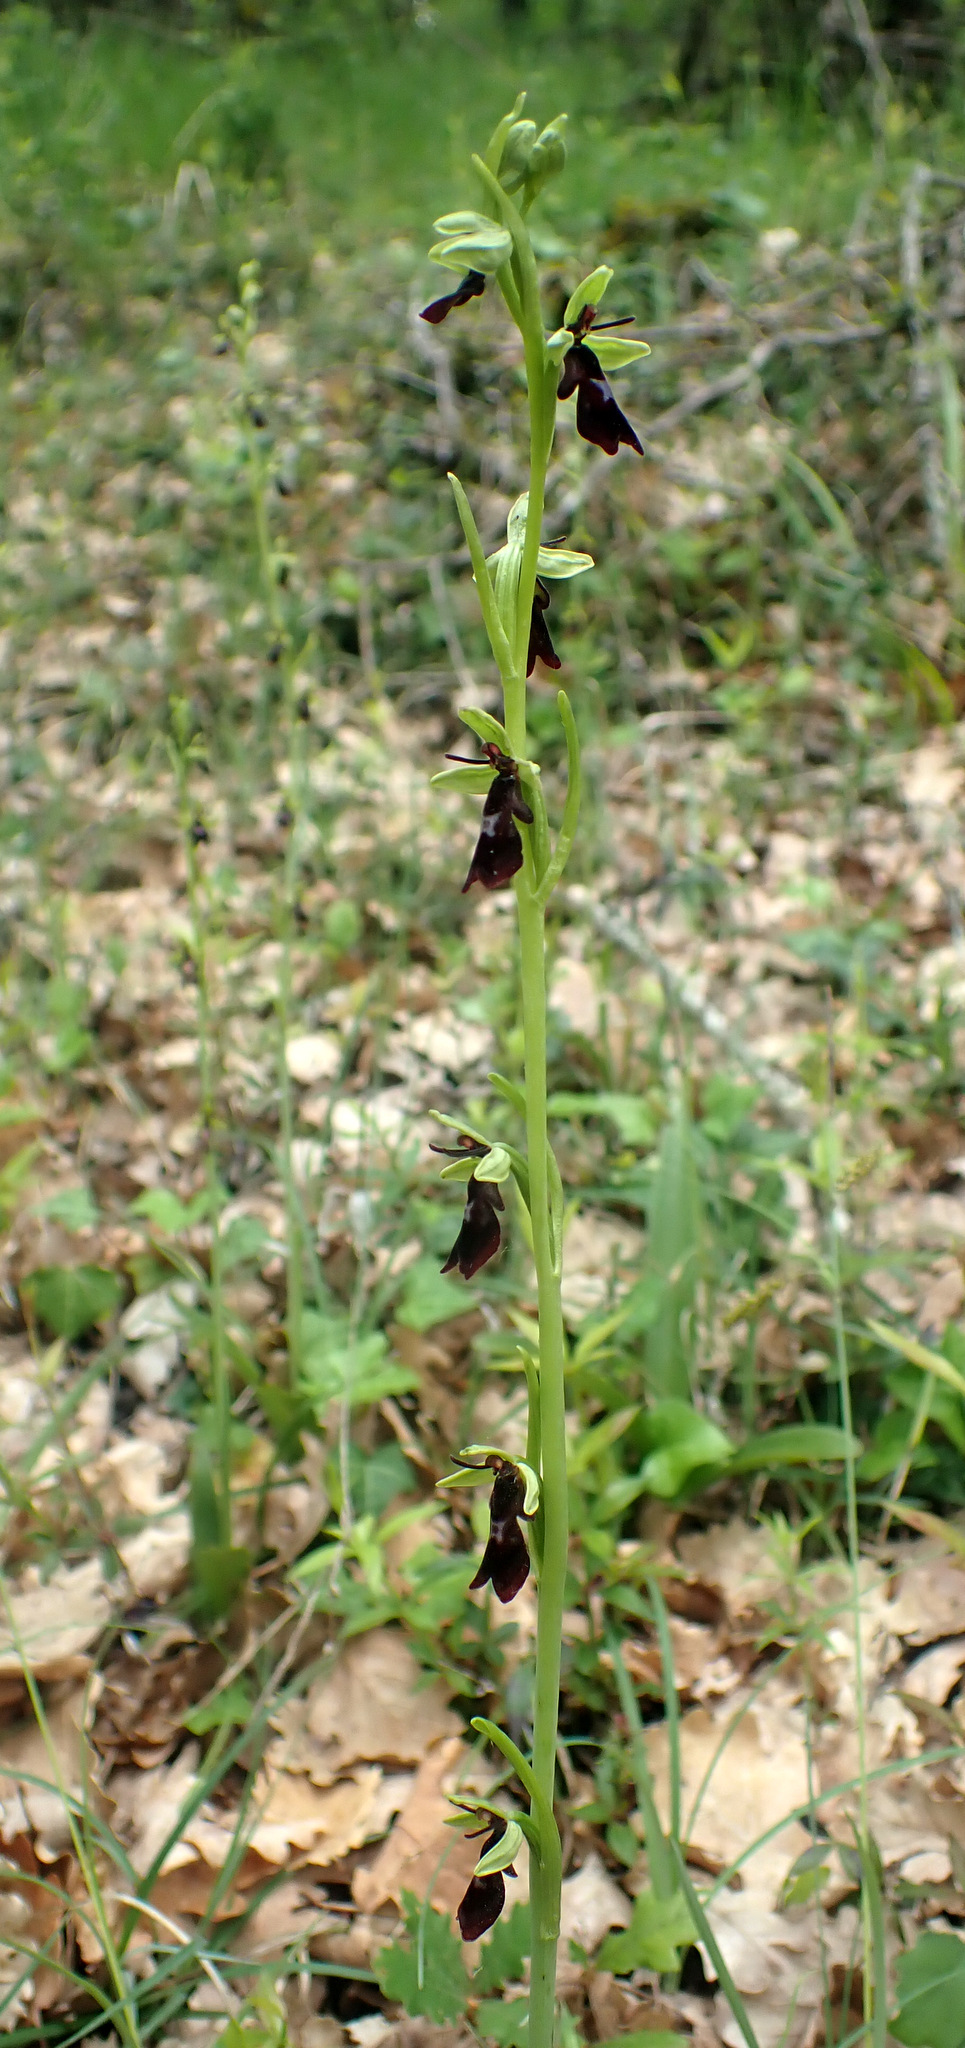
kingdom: Plantae
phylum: Tracheophyta
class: Liliopsida
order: Asparagales
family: Orchidaceae
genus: Ophrys
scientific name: Ophrys insectifera
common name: Fly orchid
